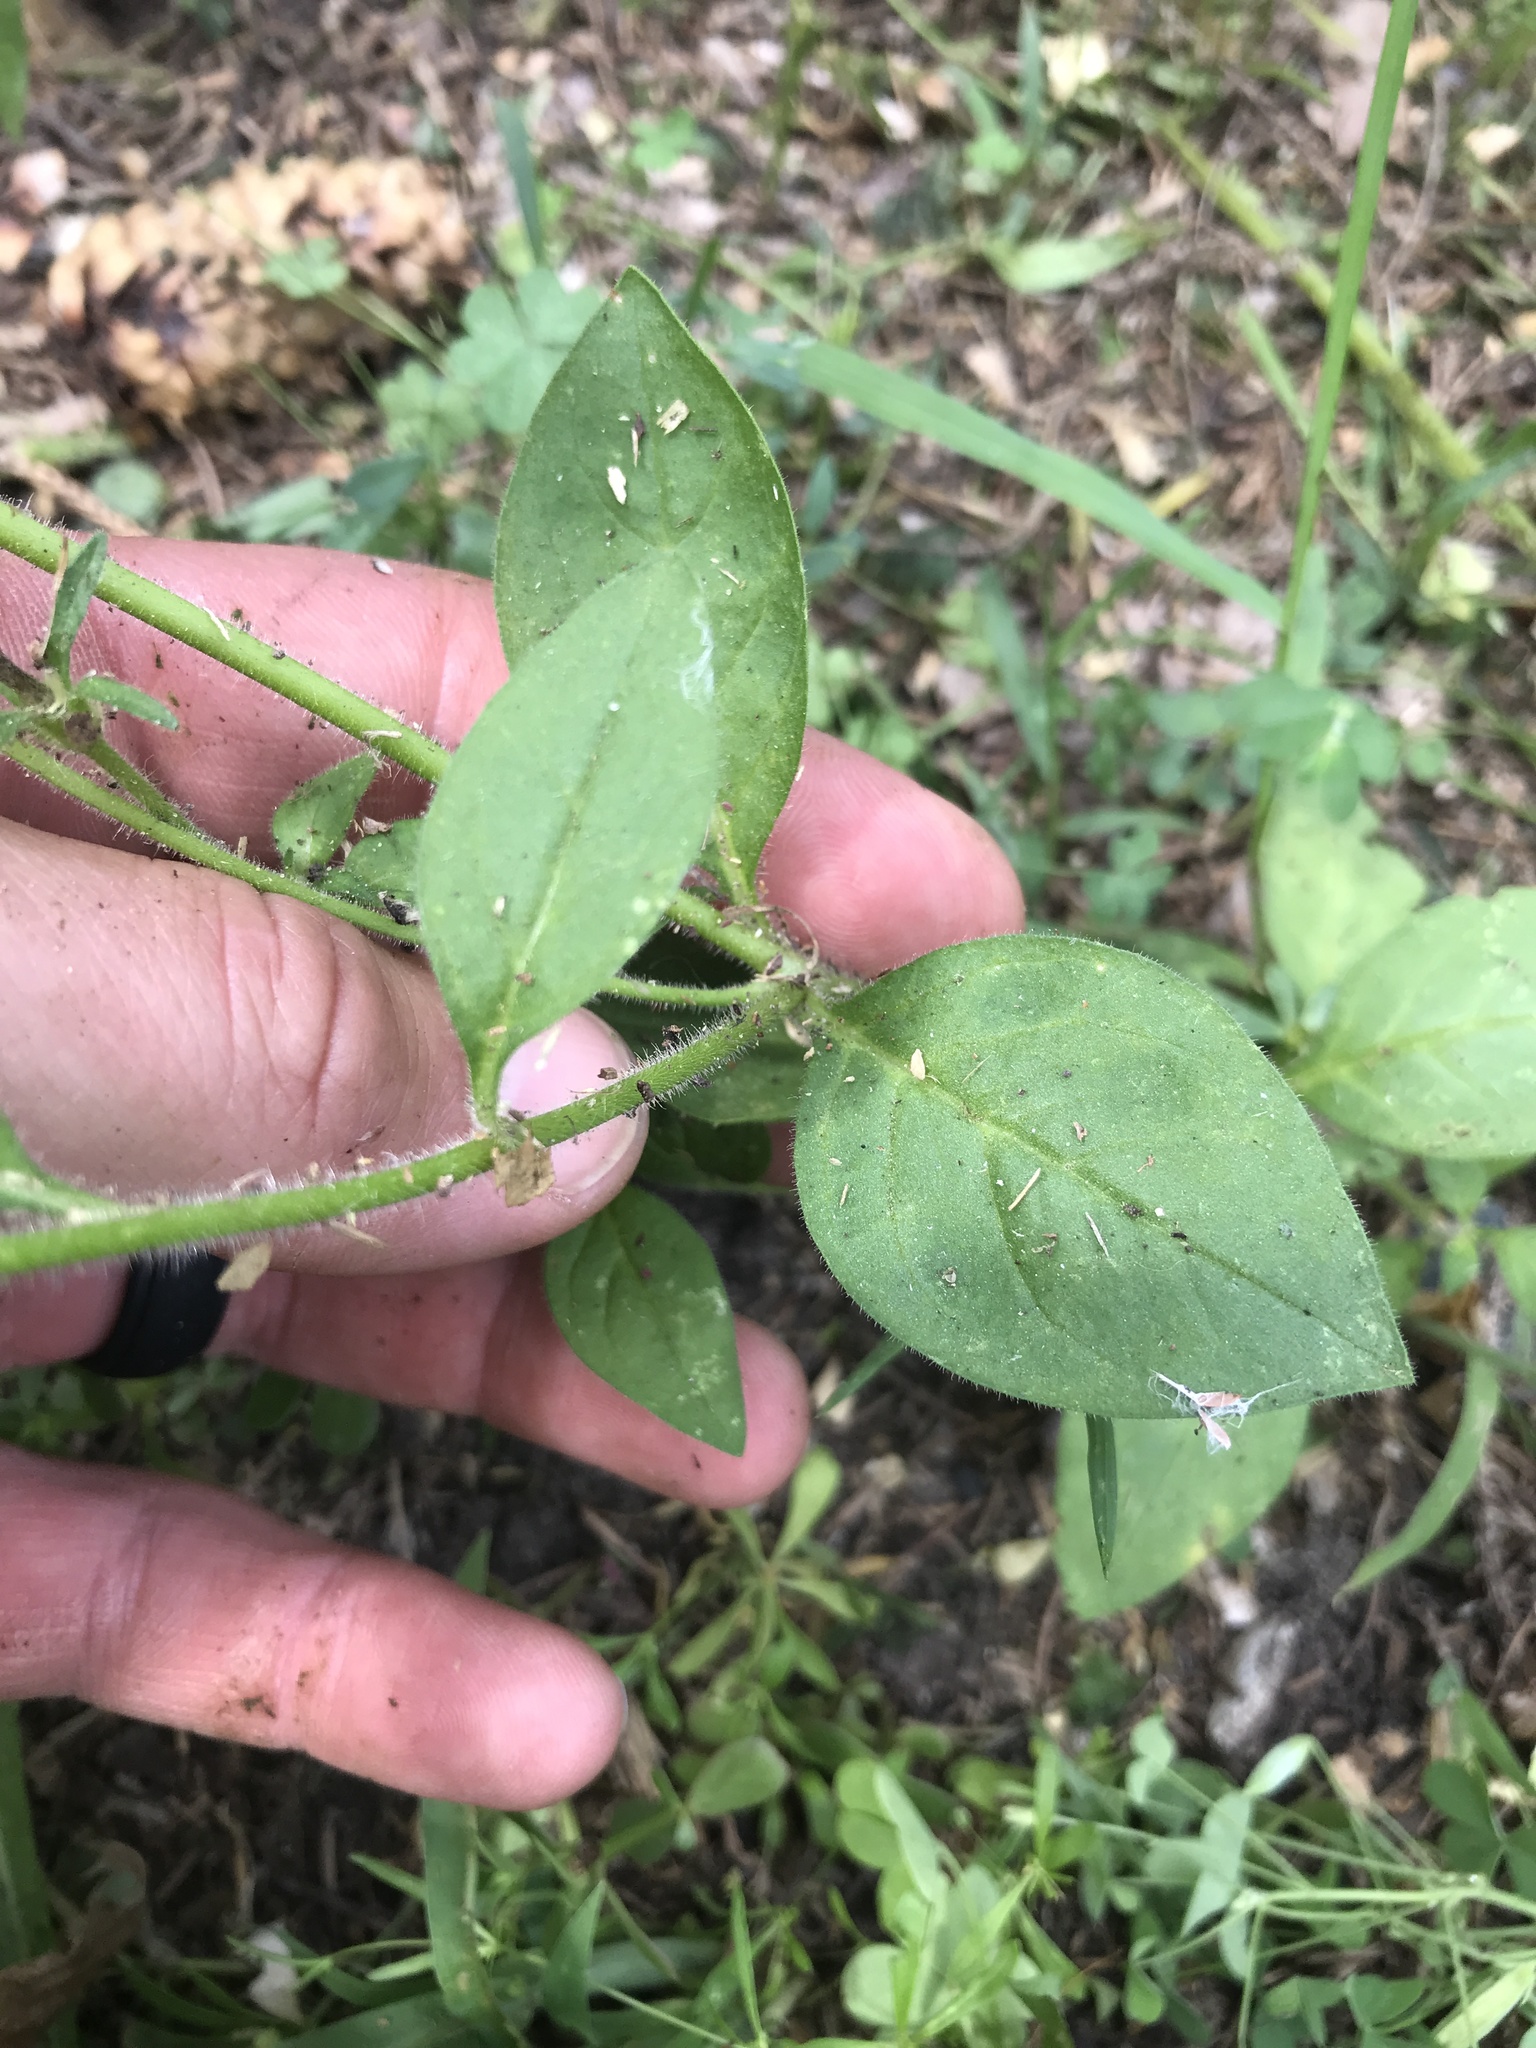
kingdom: Plantae
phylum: Tracheophyta
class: Magnoliopsida
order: Solanales
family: Solanaceae
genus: Petunia
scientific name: Petunia atkinsiana
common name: Petunia
